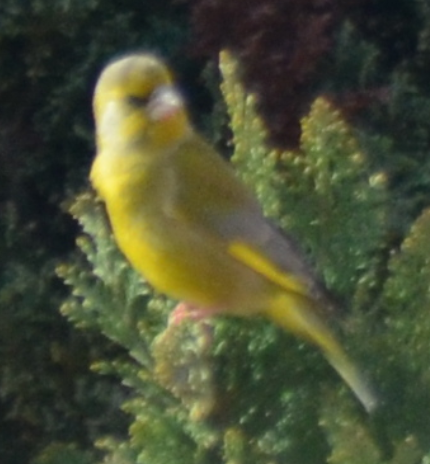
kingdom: Plantae
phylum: Tracheophyta
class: Liliopsida
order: Poales
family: Poaceae
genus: Chloris
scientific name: Chloris chloris
